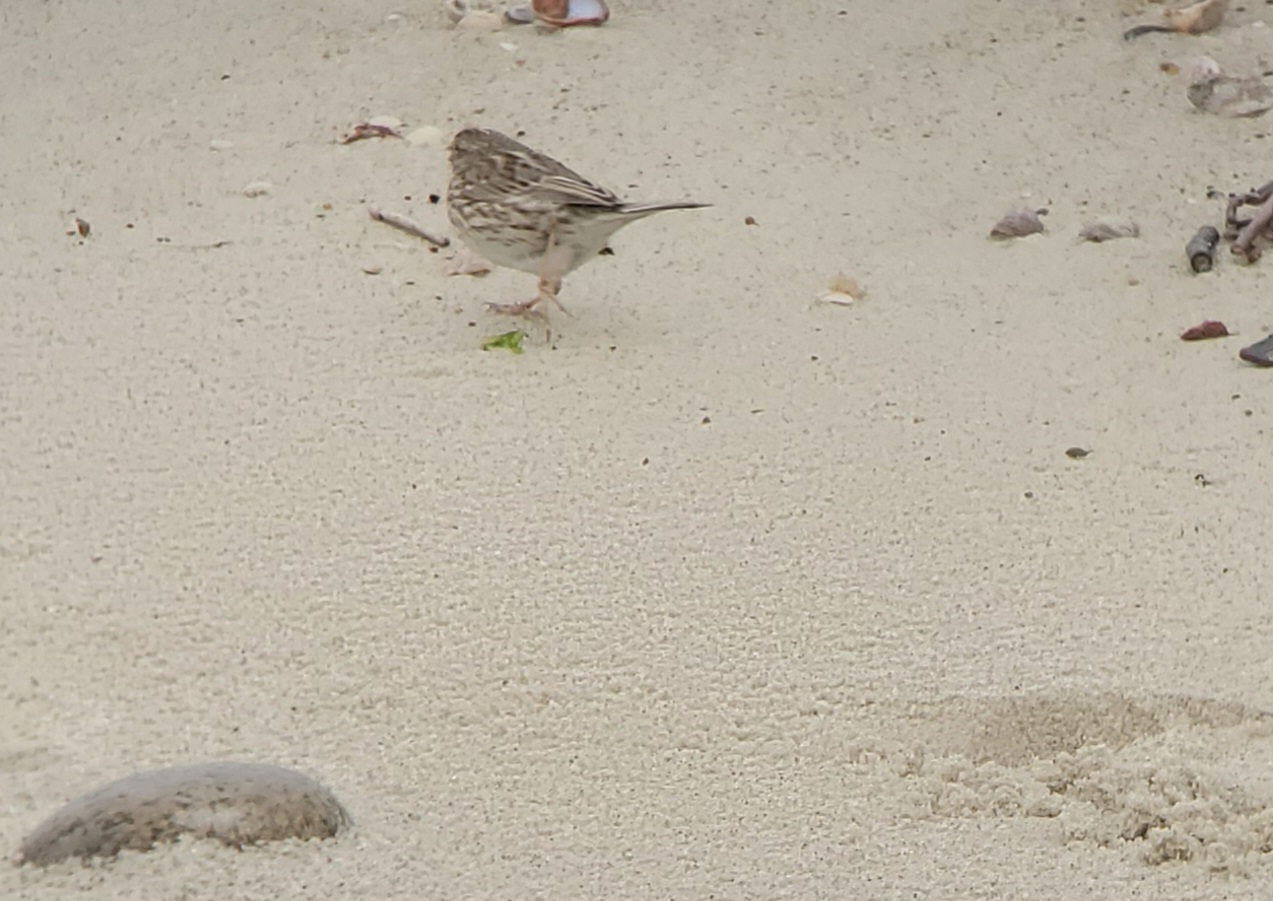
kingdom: Animalia
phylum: Chordata
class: Aves
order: Passeriformes
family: Passerellidae
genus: Passerculus
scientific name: Passerculus sandwichensis
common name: Savannah sparrow
